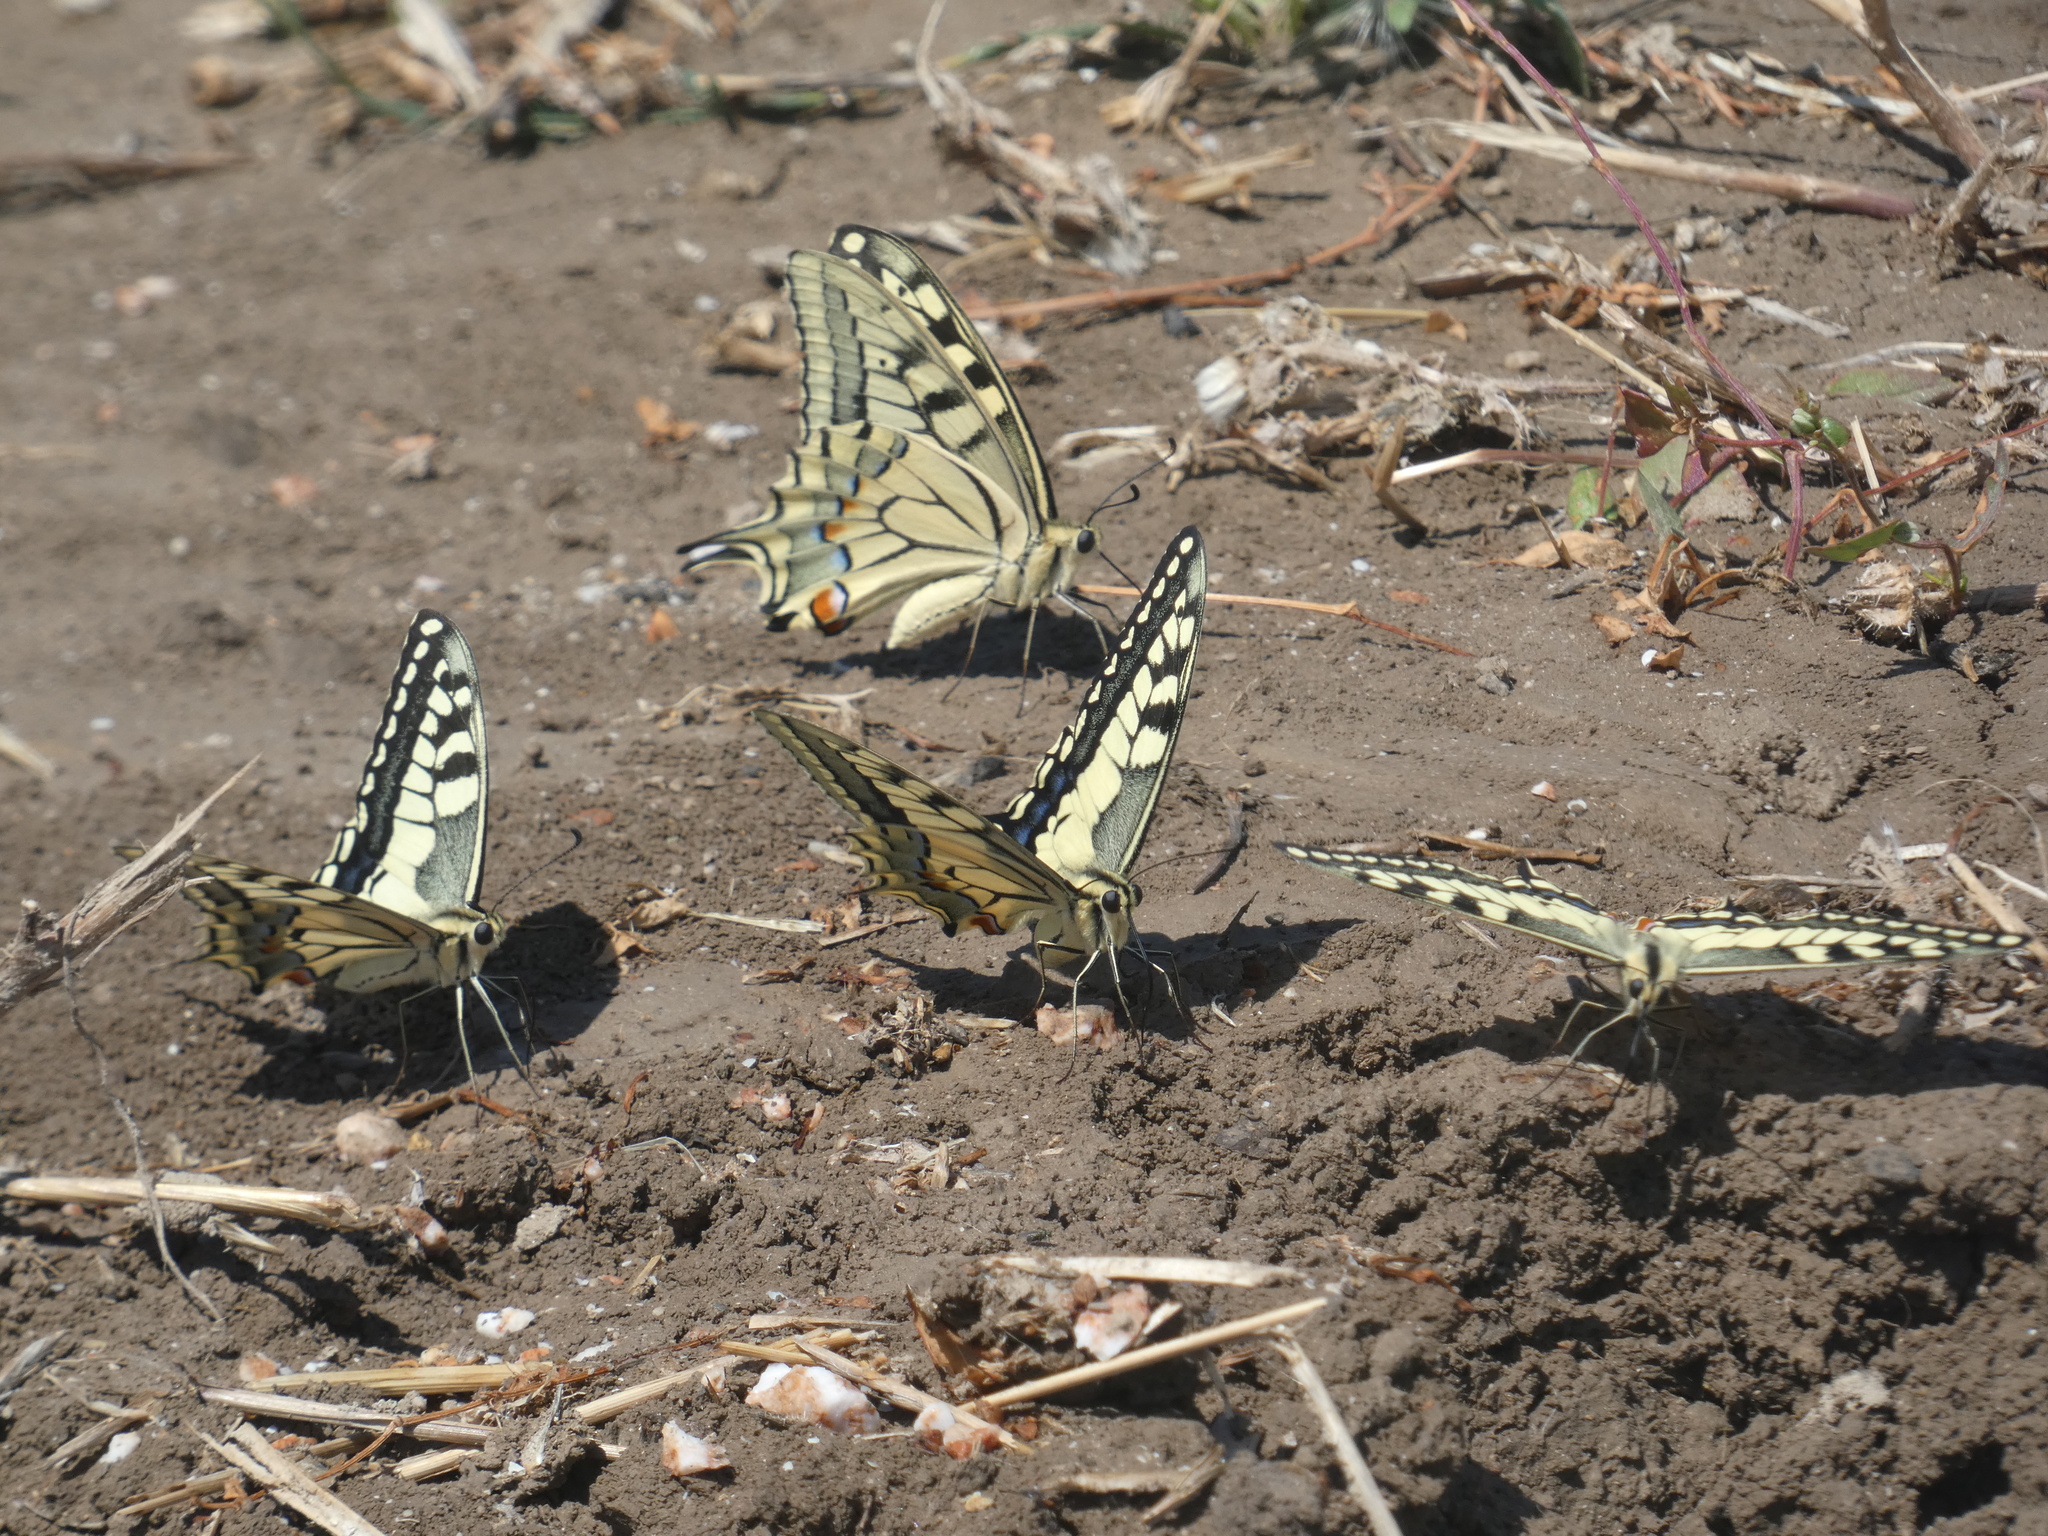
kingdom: Animalia
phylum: Arthropoda
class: Insecta
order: Lepidoptera
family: Papilionidae
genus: Papilio
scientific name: Papilio machaon
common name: Swallowtail
